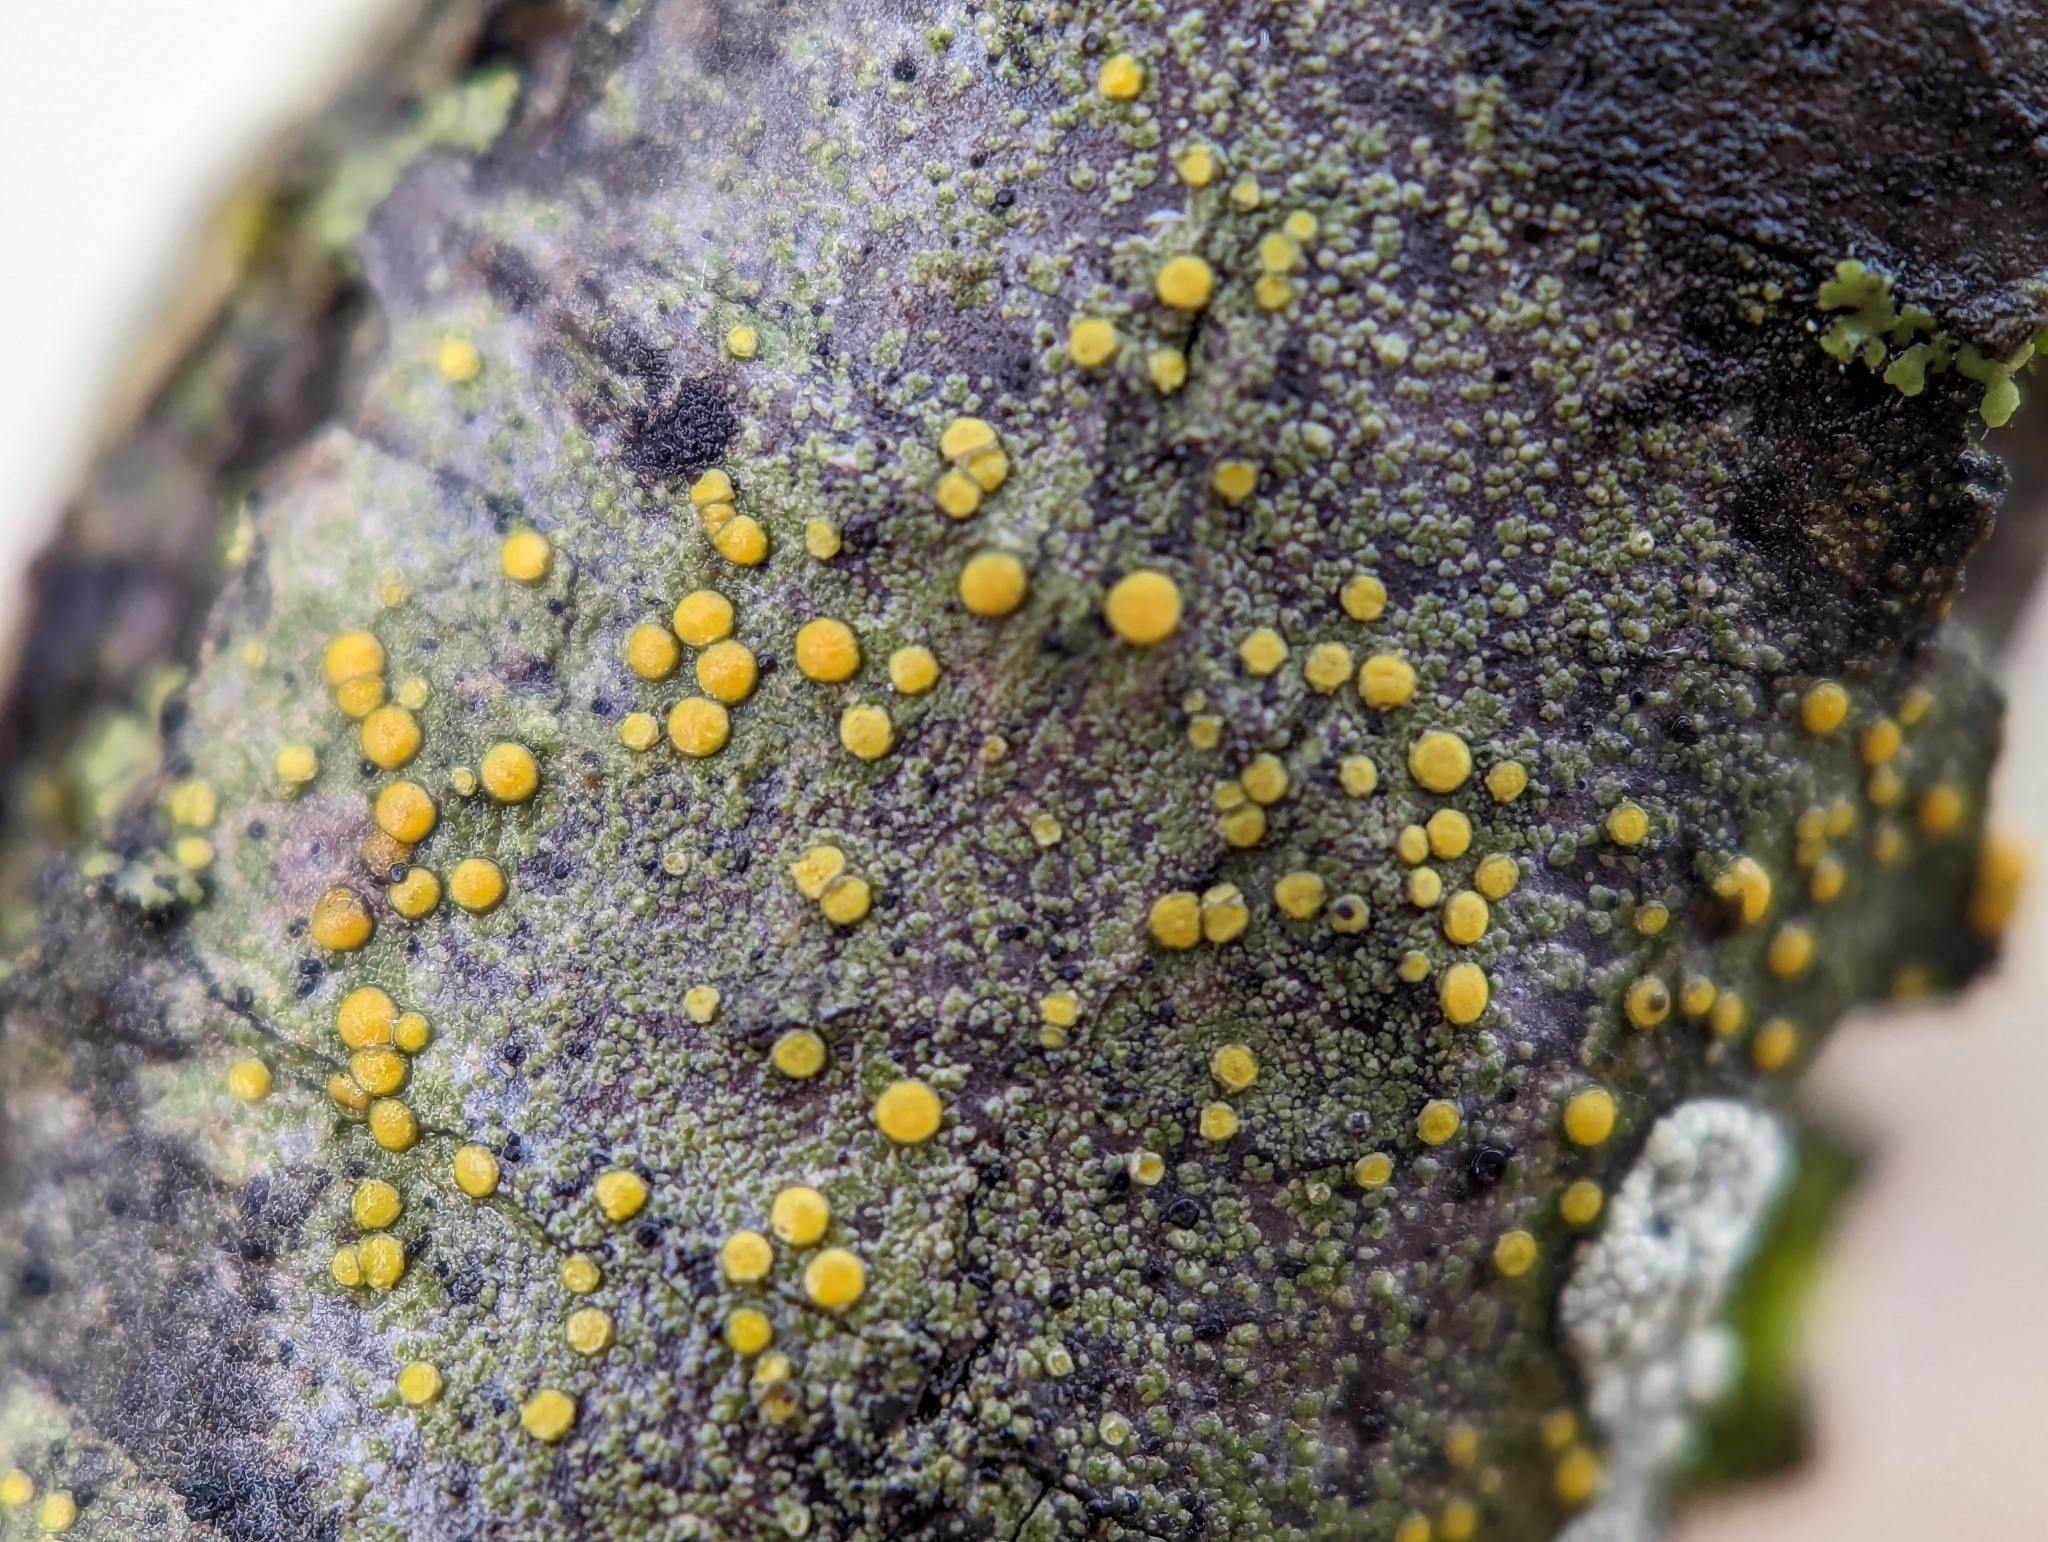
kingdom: Fungi
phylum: Ascomycota
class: Lecanoromycetes
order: Teloschistales
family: Teloschistaceae
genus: Caloplaca
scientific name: Caloplaca cerina
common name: Gray-rimmed firedot lichen
